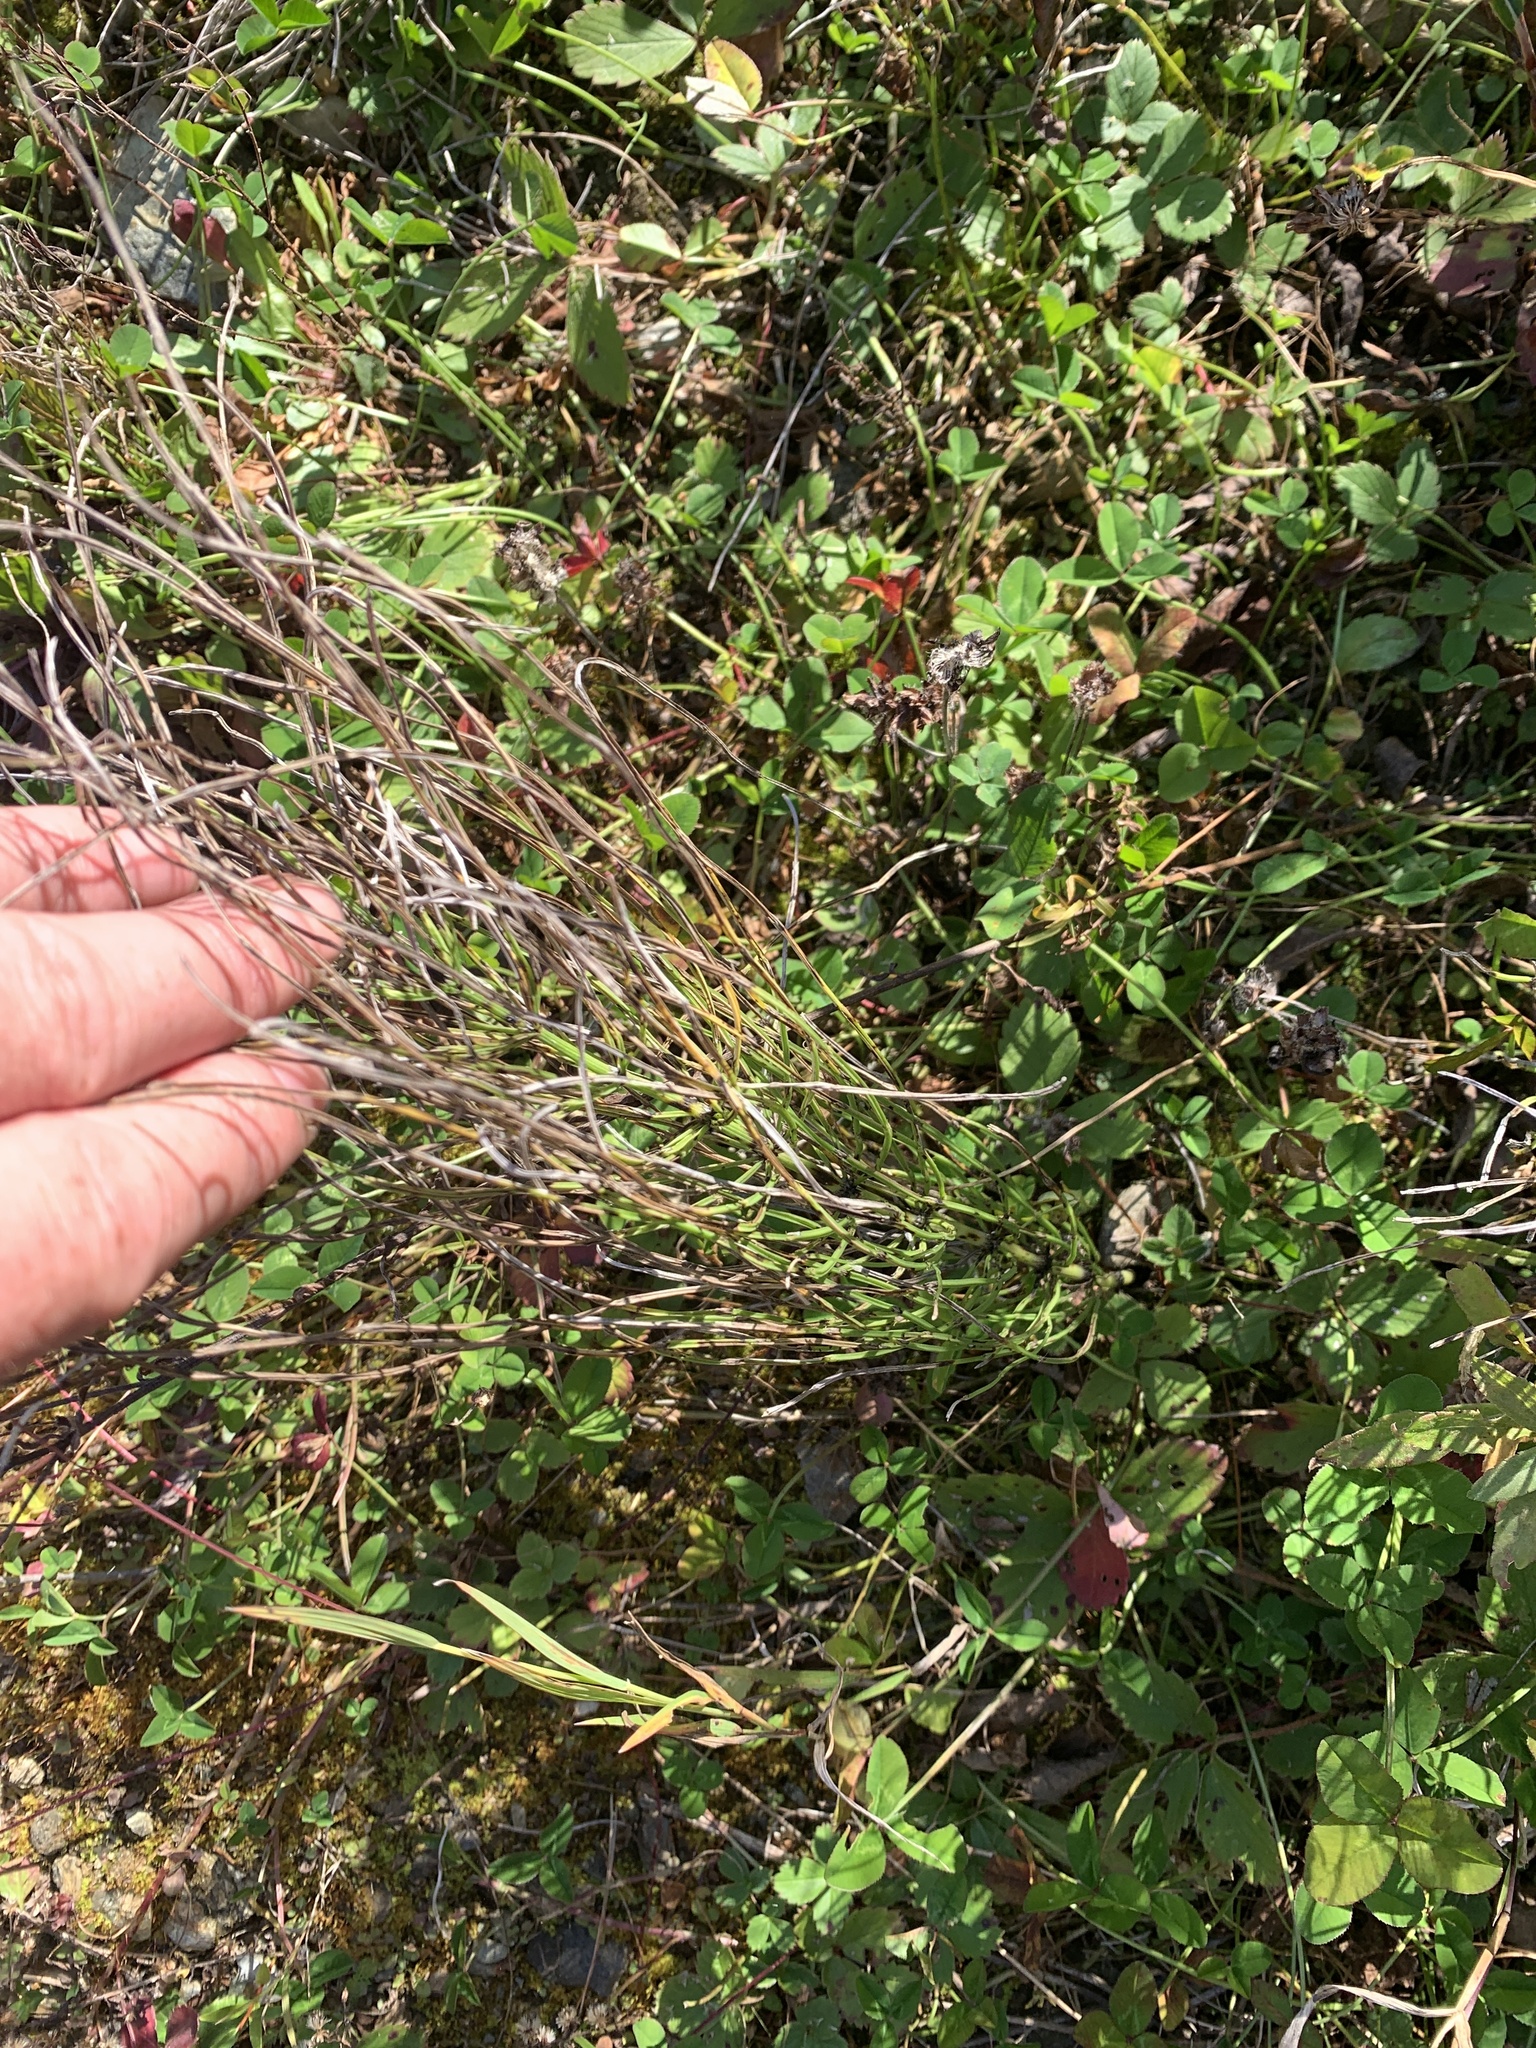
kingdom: Plantae
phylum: Tracheophyta
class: Polypodiopsida
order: Equisetales
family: Equisetaceae
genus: Equisetum
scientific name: Equisetum arvense
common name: Field horsetail
